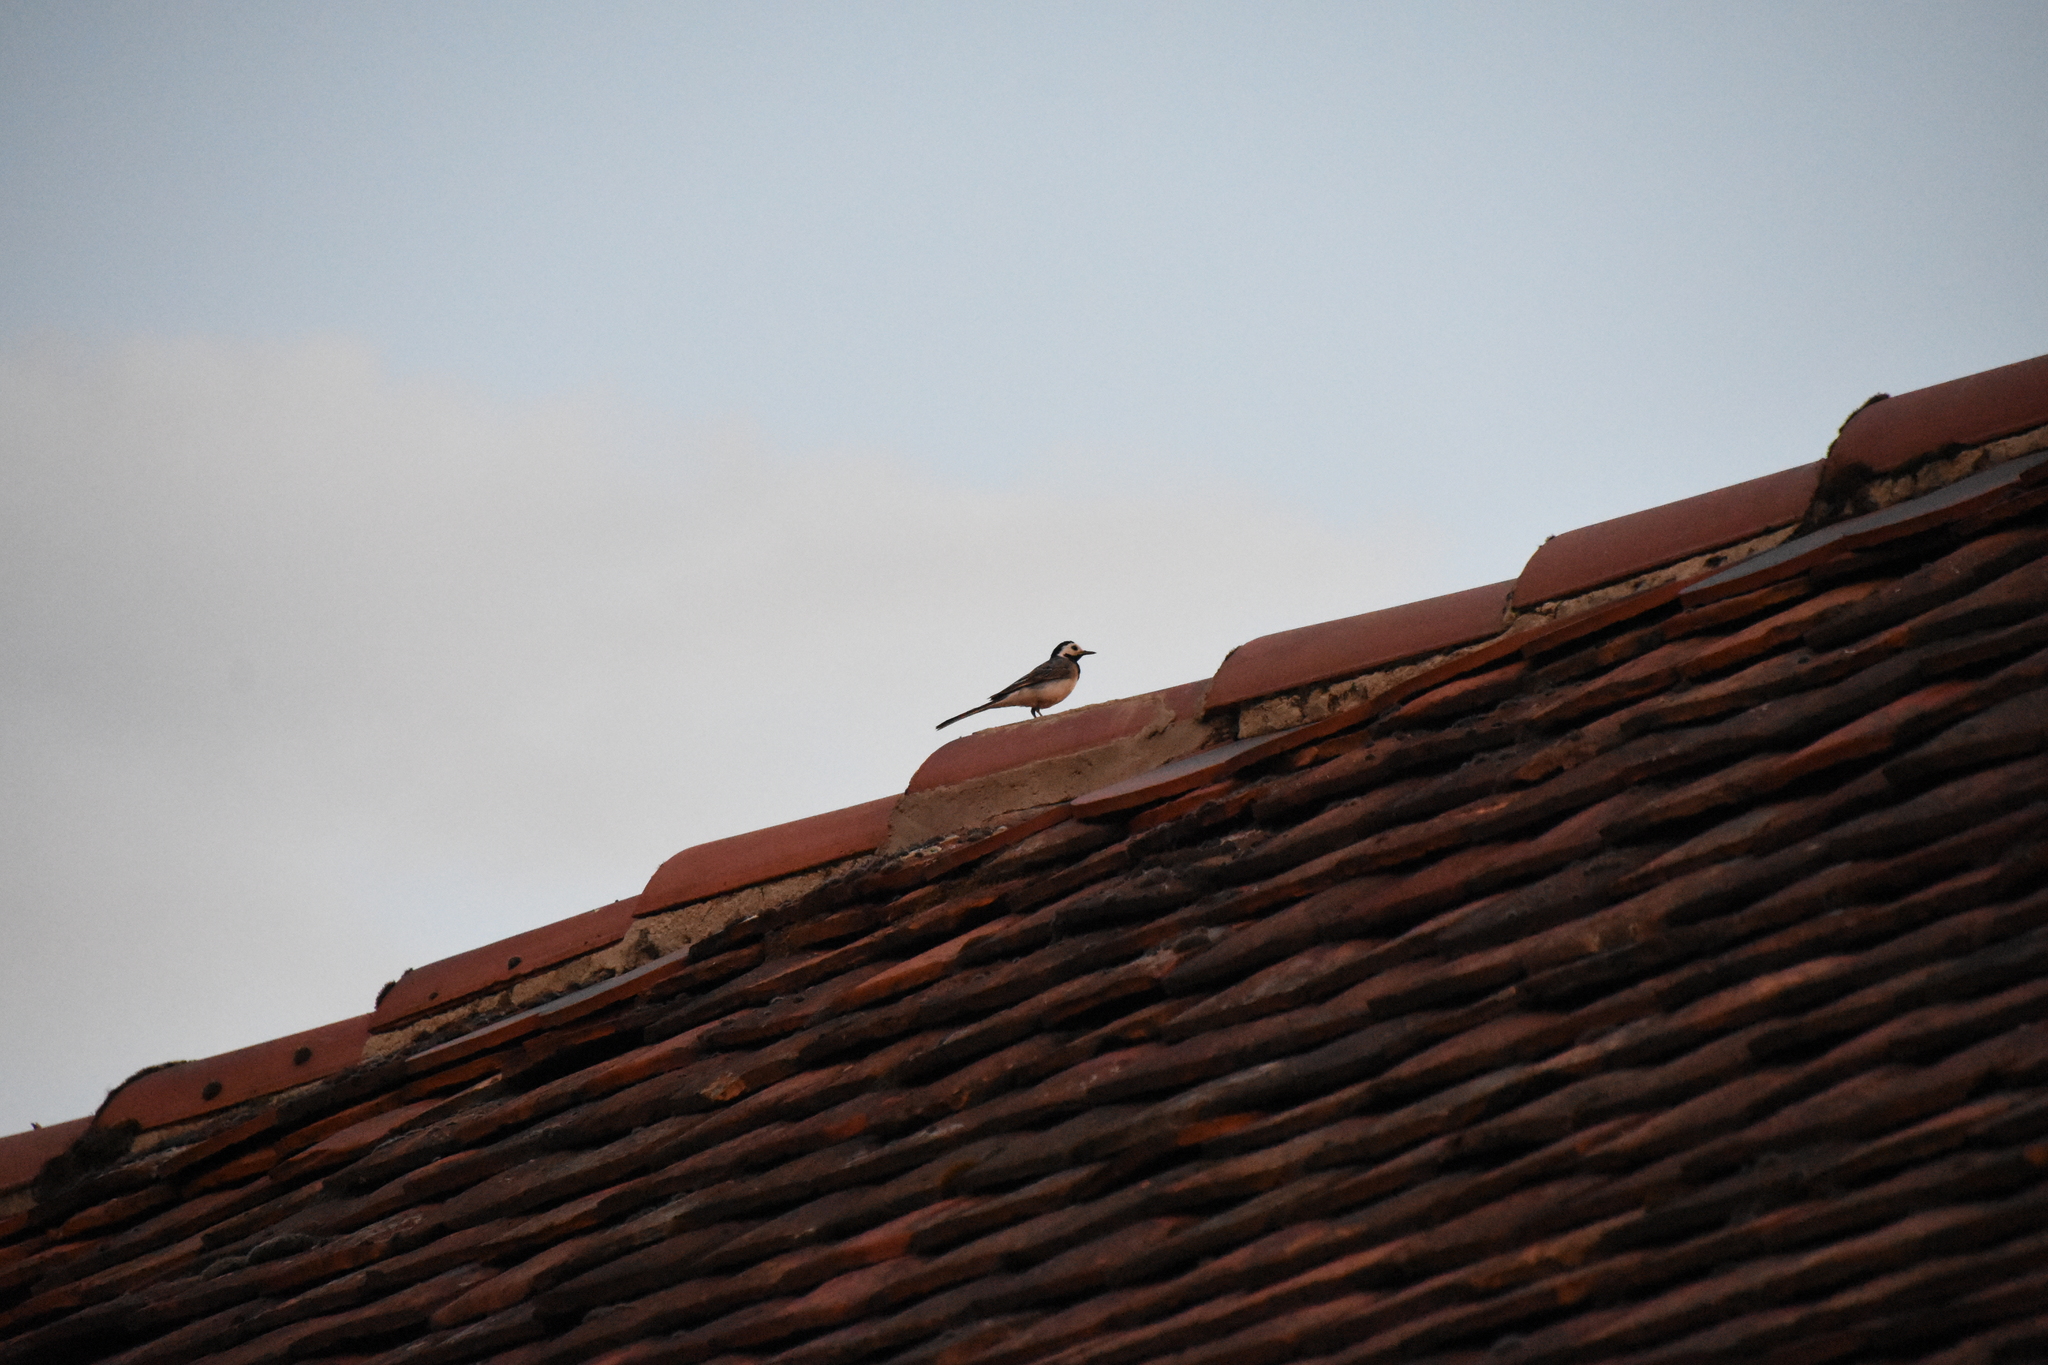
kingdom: Animalia
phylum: Chordata
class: Aves
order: Passeriformes
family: Motacillidae
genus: Motacilla
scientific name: Motacilla alba
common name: White wagtail
